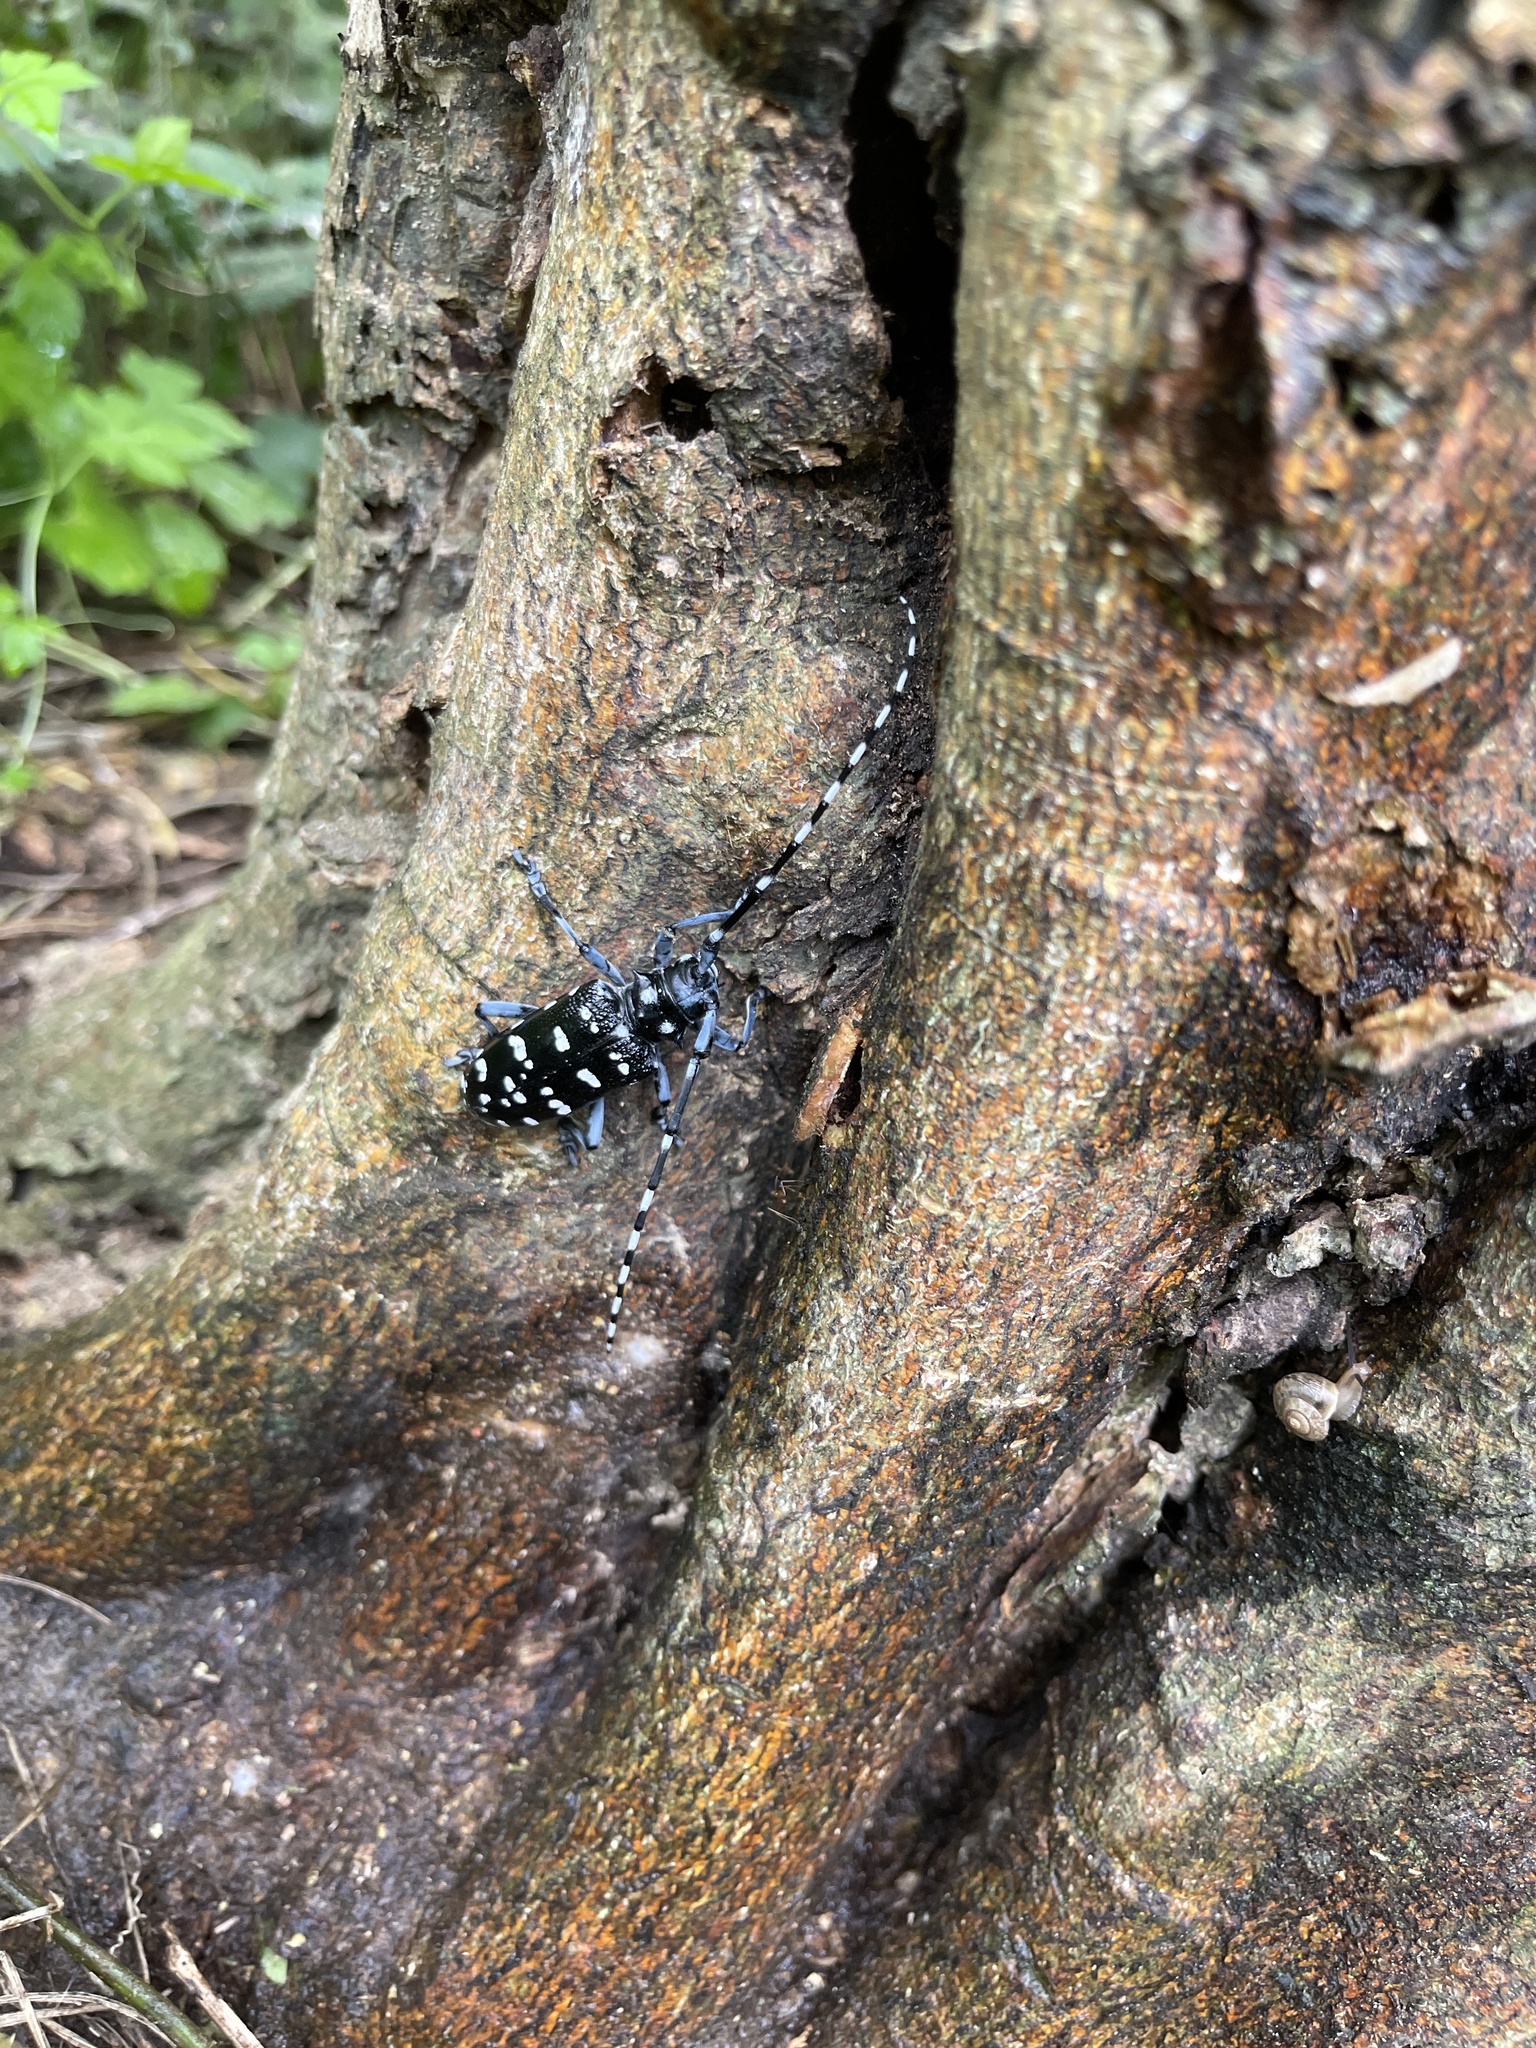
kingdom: Animalia
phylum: Arthropoda
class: Insecta
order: Coleoptera
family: Cerambycidae
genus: Anoplophora
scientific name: Anoplophora chinensis
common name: Citrus longhorned beetle
